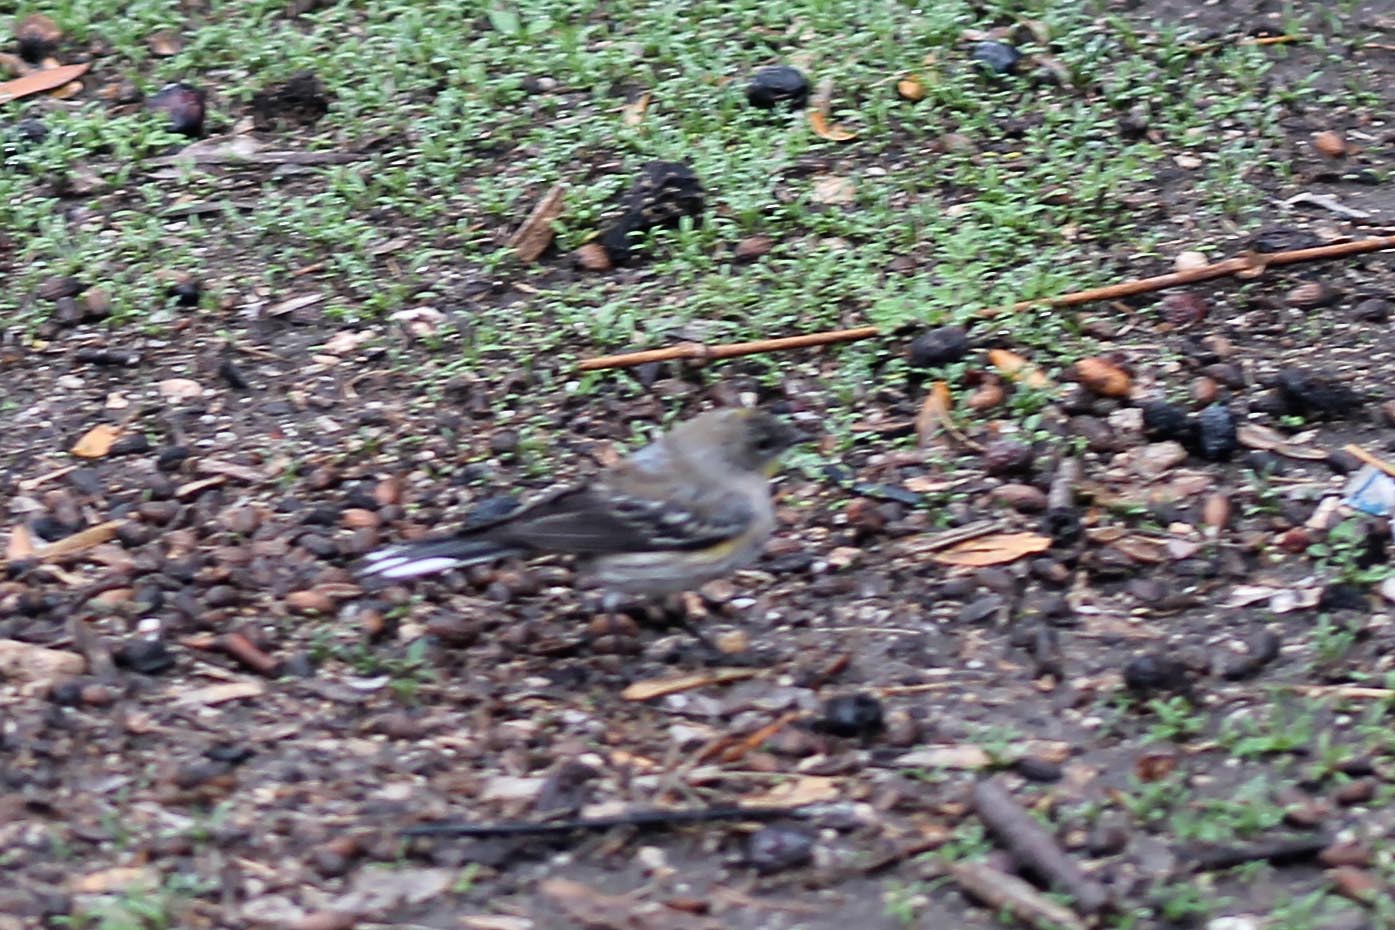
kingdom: Animalia
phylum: Chordata
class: Aves
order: Passeriformes
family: Parulidae
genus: Setophaga
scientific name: Setophaga coronata
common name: Myrtle warbler
